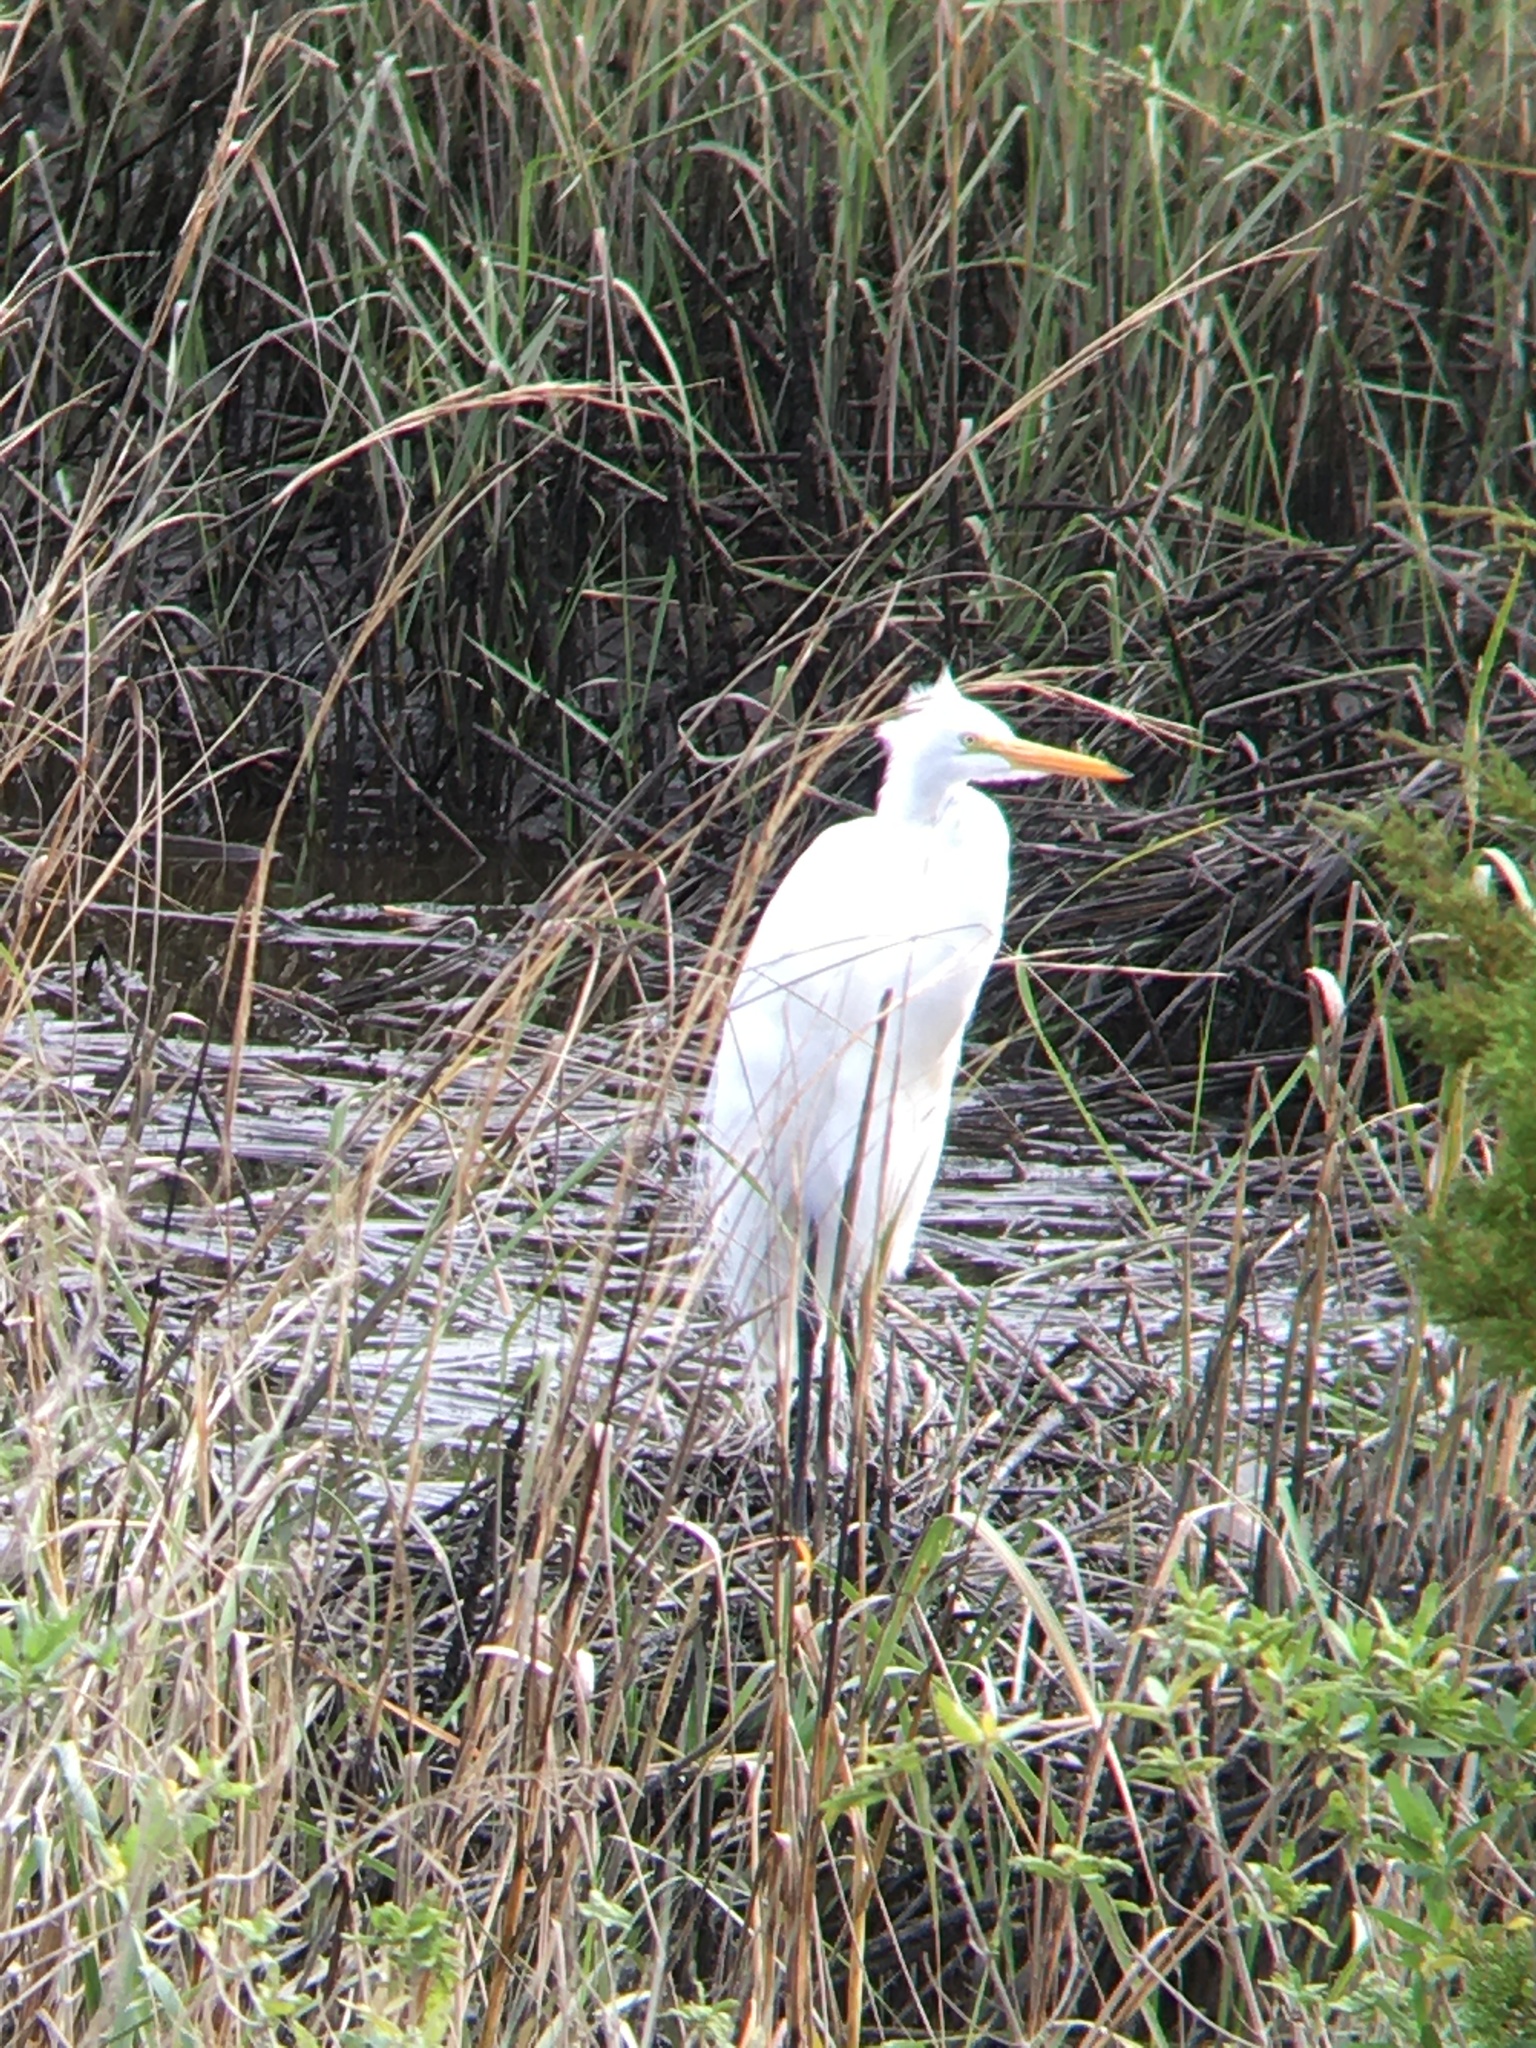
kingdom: Animalia
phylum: Chordata
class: Aves
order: Pelecaniformes
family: Ardeidae
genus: Ardea
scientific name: Ardea alba
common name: Great egret
